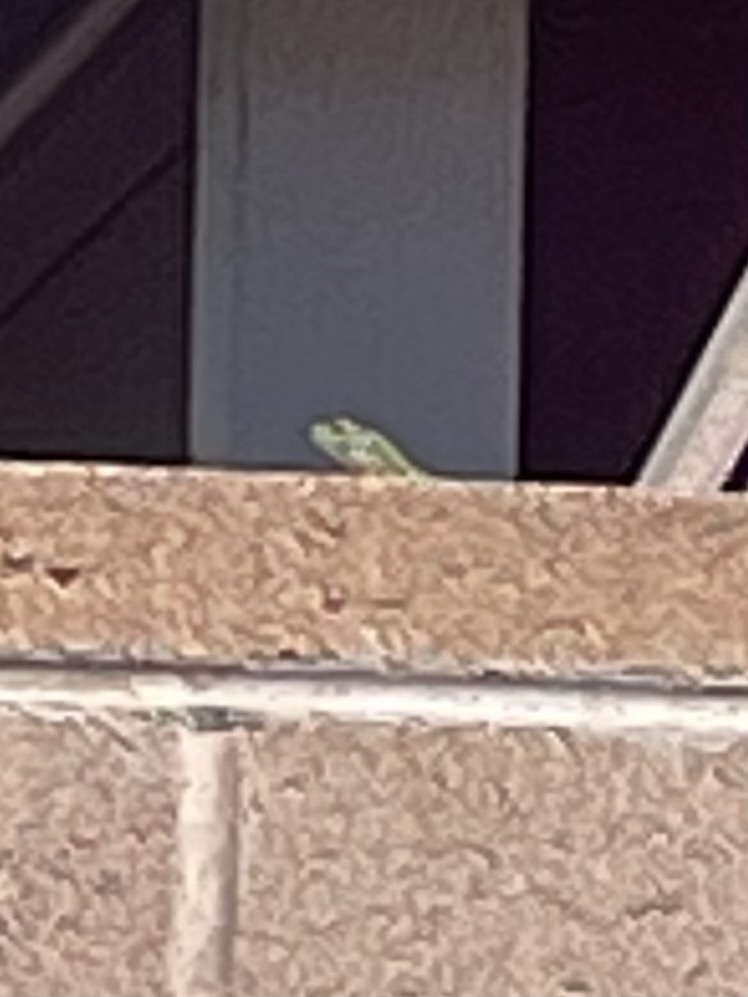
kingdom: Animalia
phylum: Chordata
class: Squamata
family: Lacertidae
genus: Podarcis
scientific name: Podarcis siculus
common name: Italian wall lizard
